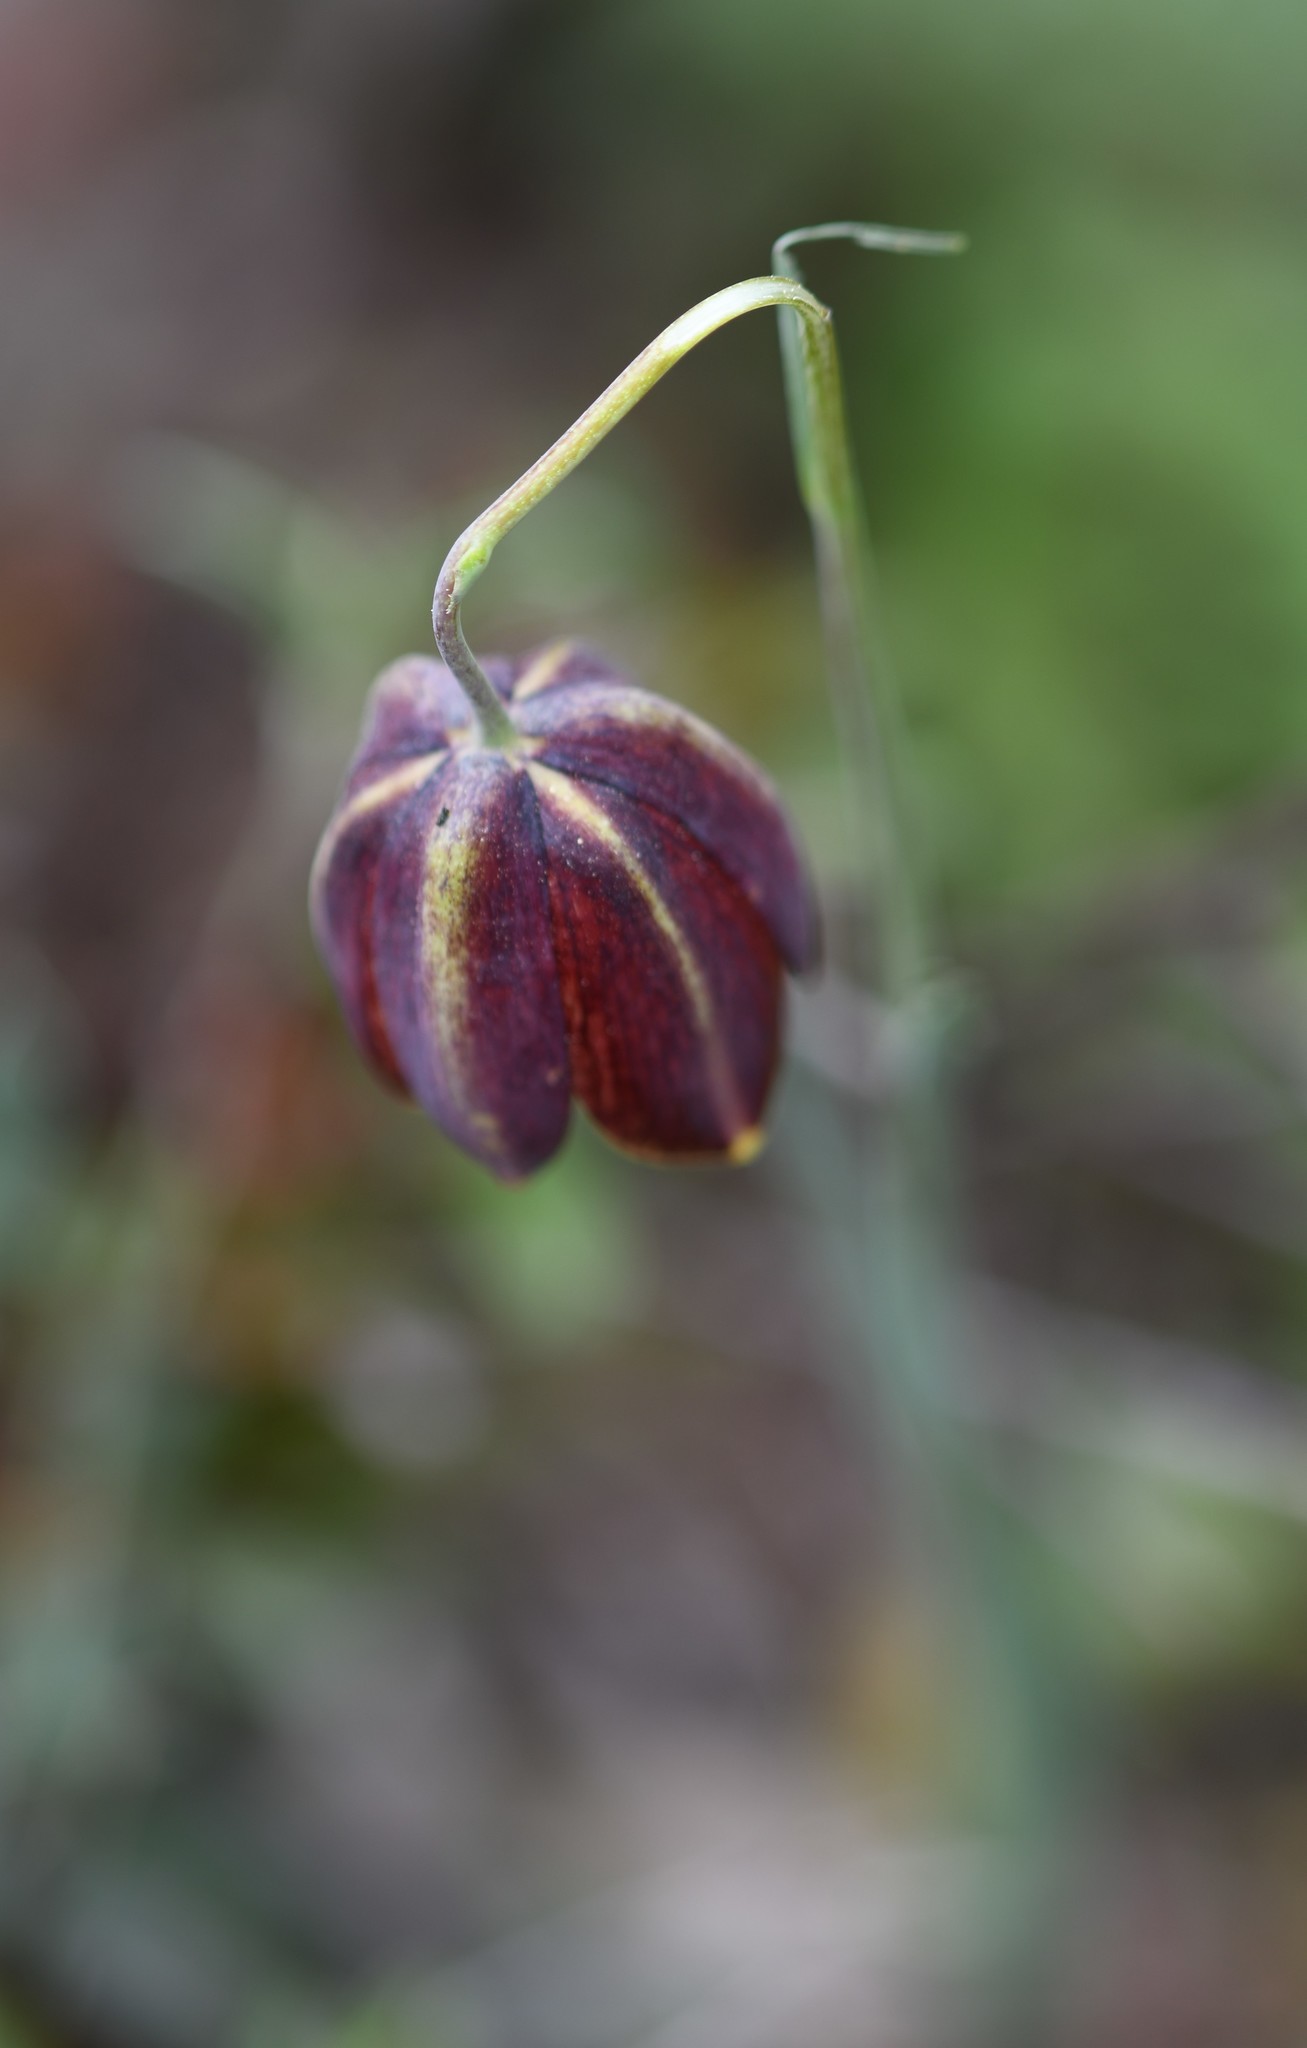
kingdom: Plantae
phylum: Tracheophyta
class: Liliopsida
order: Liliales
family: Liliaceae
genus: Fritillaria
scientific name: Fritillaria lusitanica
